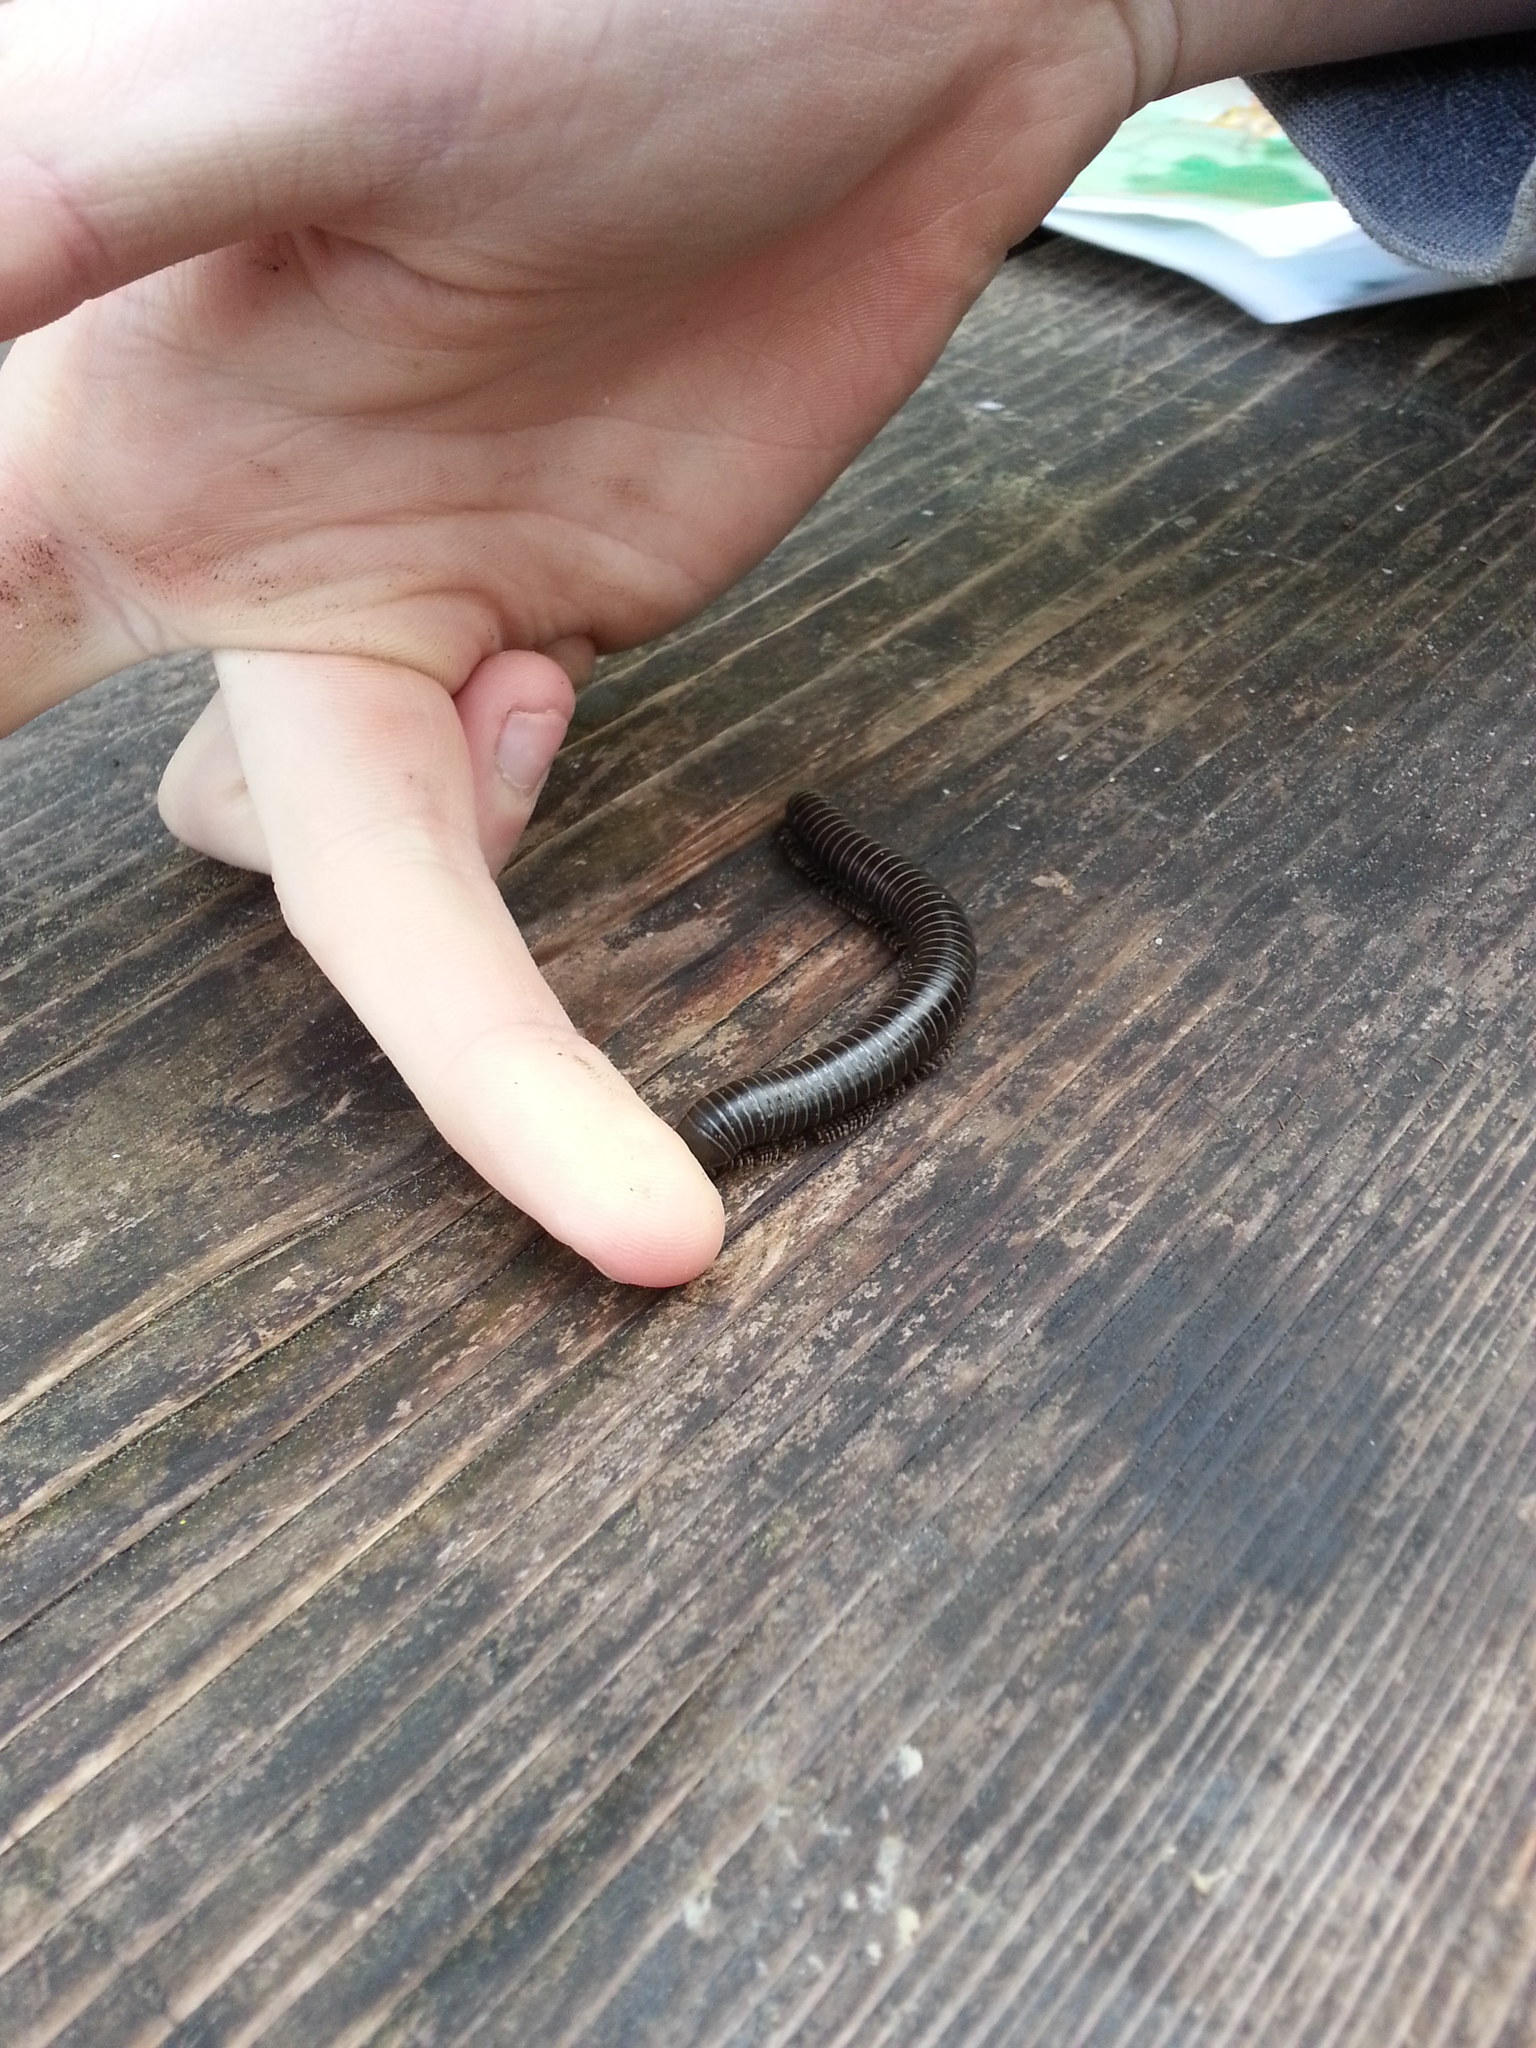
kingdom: Animalia
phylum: Arthropoda
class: Diplopoda
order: Spirobolida
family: Spirobolidae
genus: Tylobolus
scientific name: Tylobolus uncigerus
